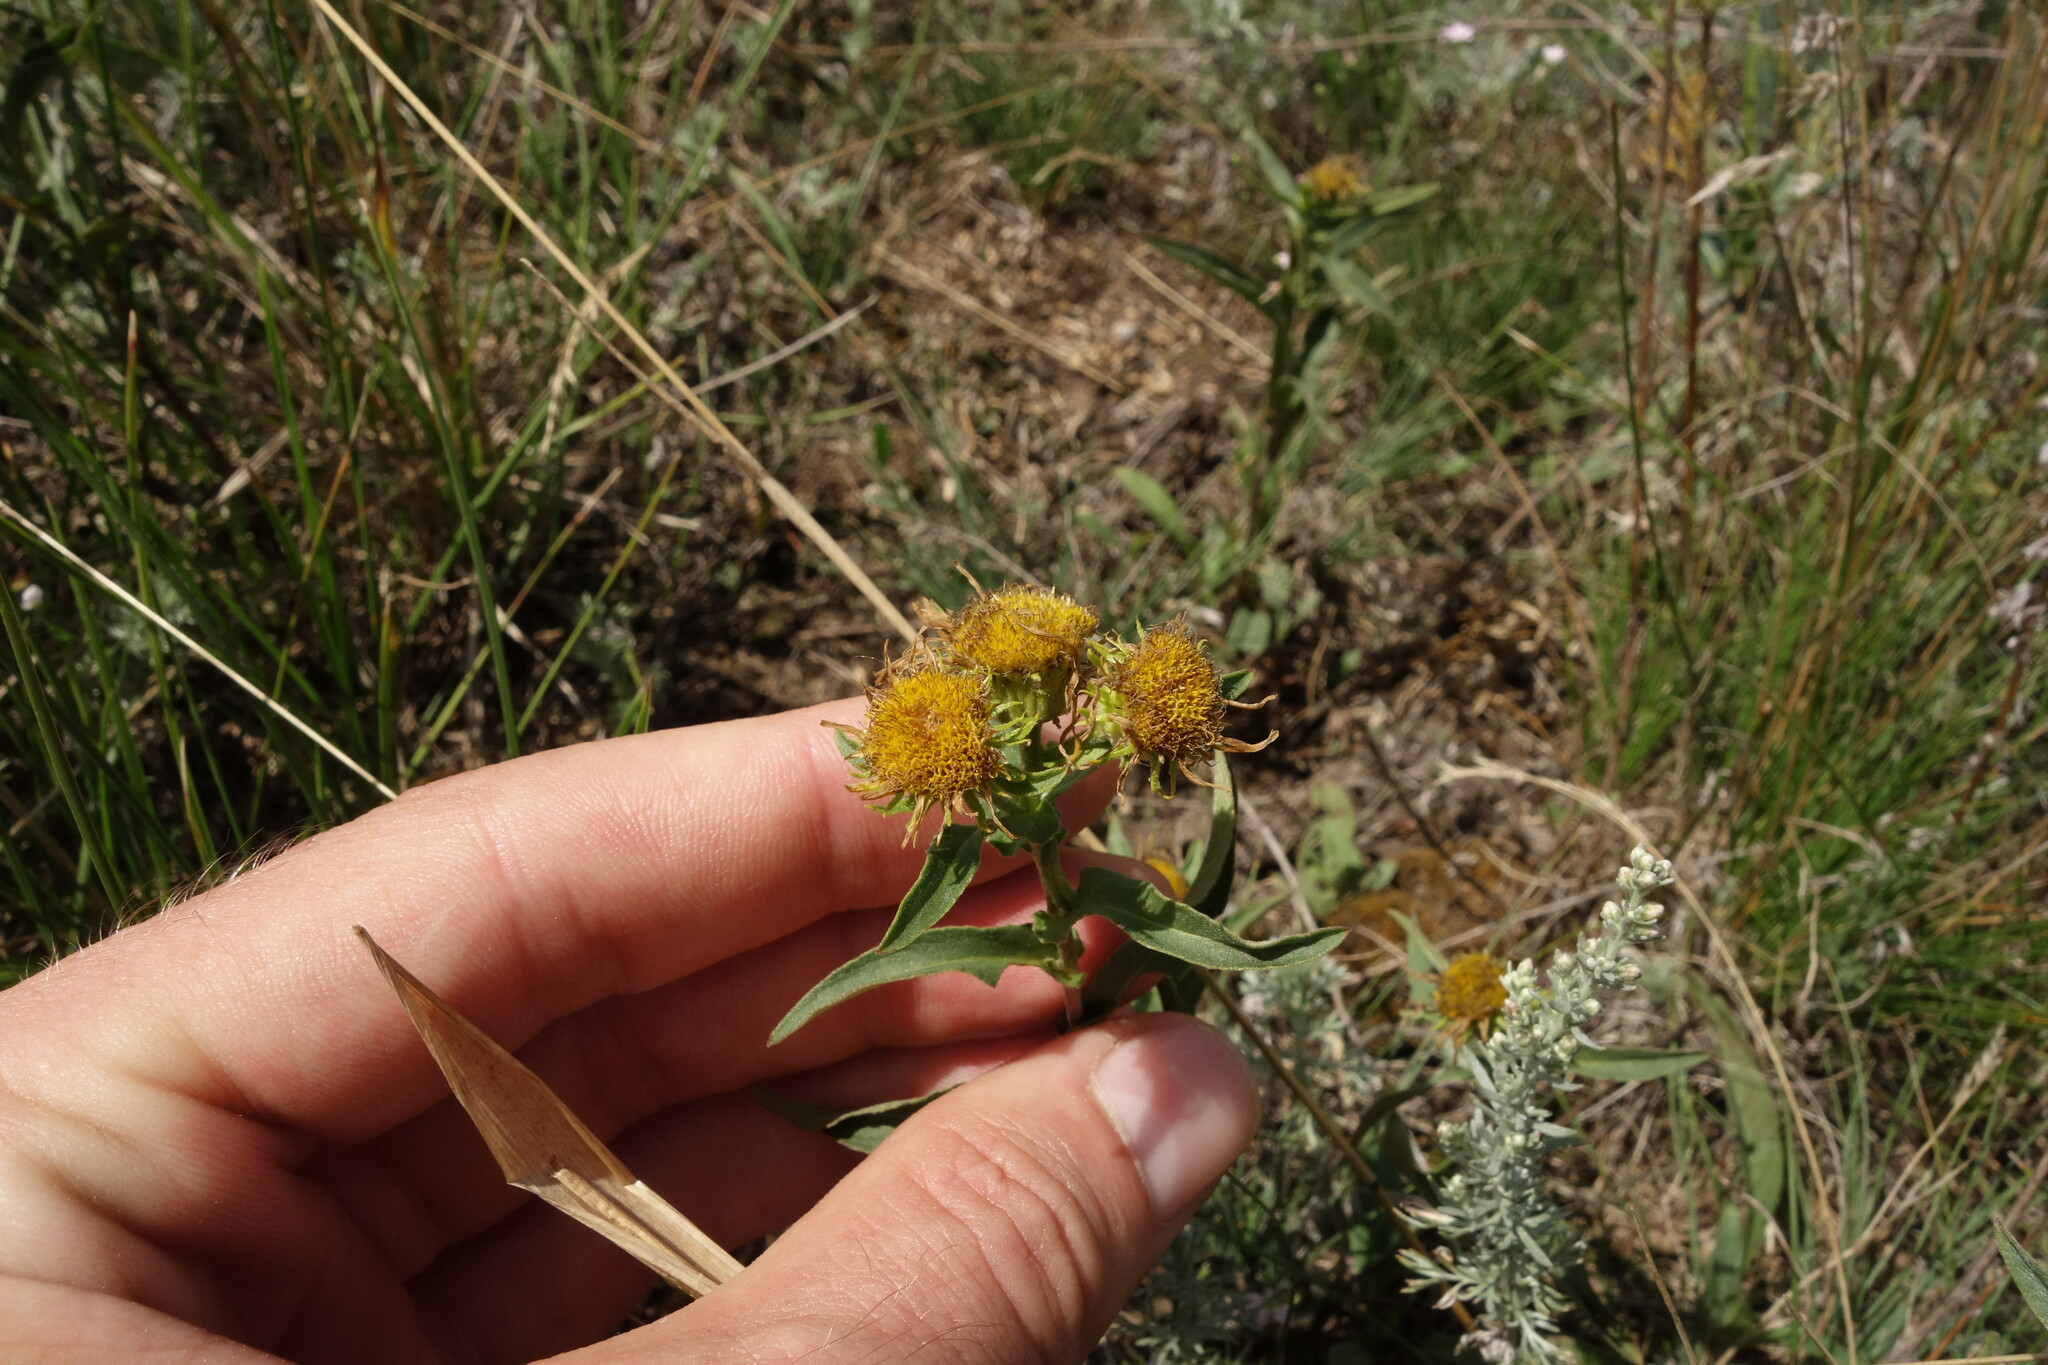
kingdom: Plantae
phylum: Tracheophyta
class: Magnoliopsida
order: Asterales
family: Asteraceae
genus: Pentanema
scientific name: Pentanema britannicum
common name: British elecampane
